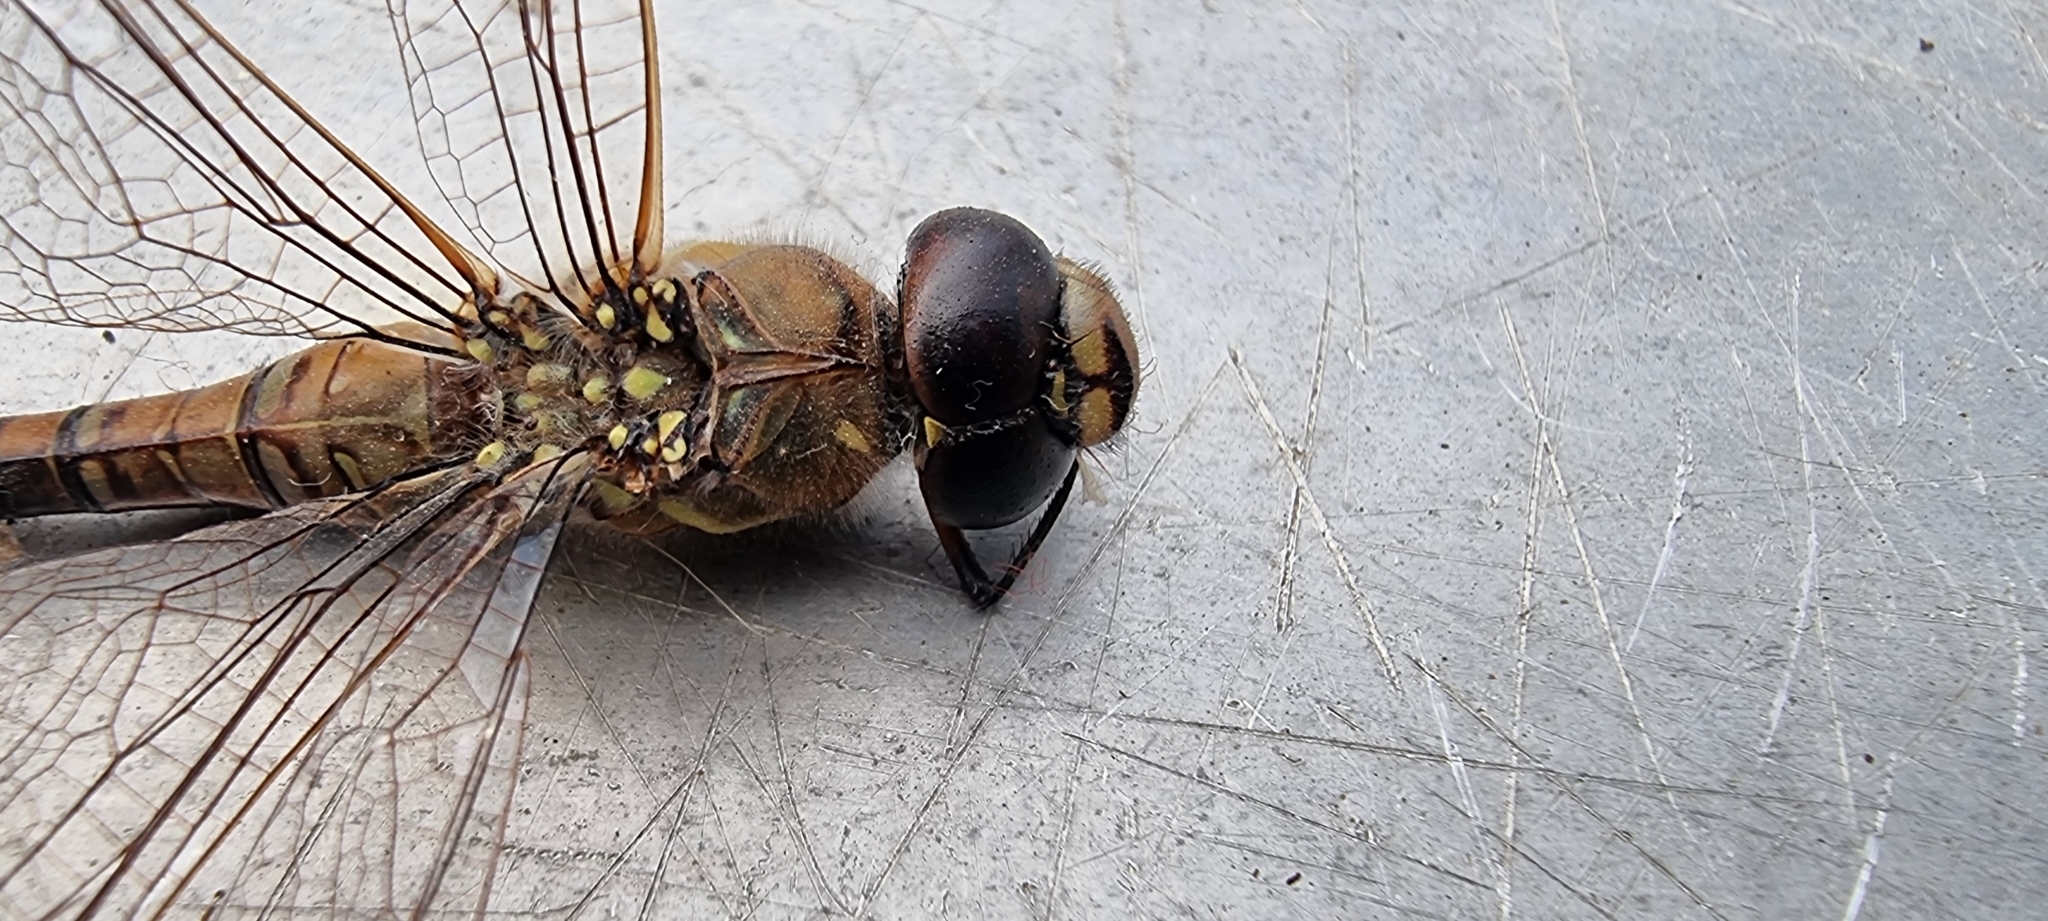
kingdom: Animalia
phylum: Arthropoda
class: Insecta
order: Odonata
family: Aeshnidae
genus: Aeshna
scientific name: Aeshna mixta
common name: Migrant hawker
